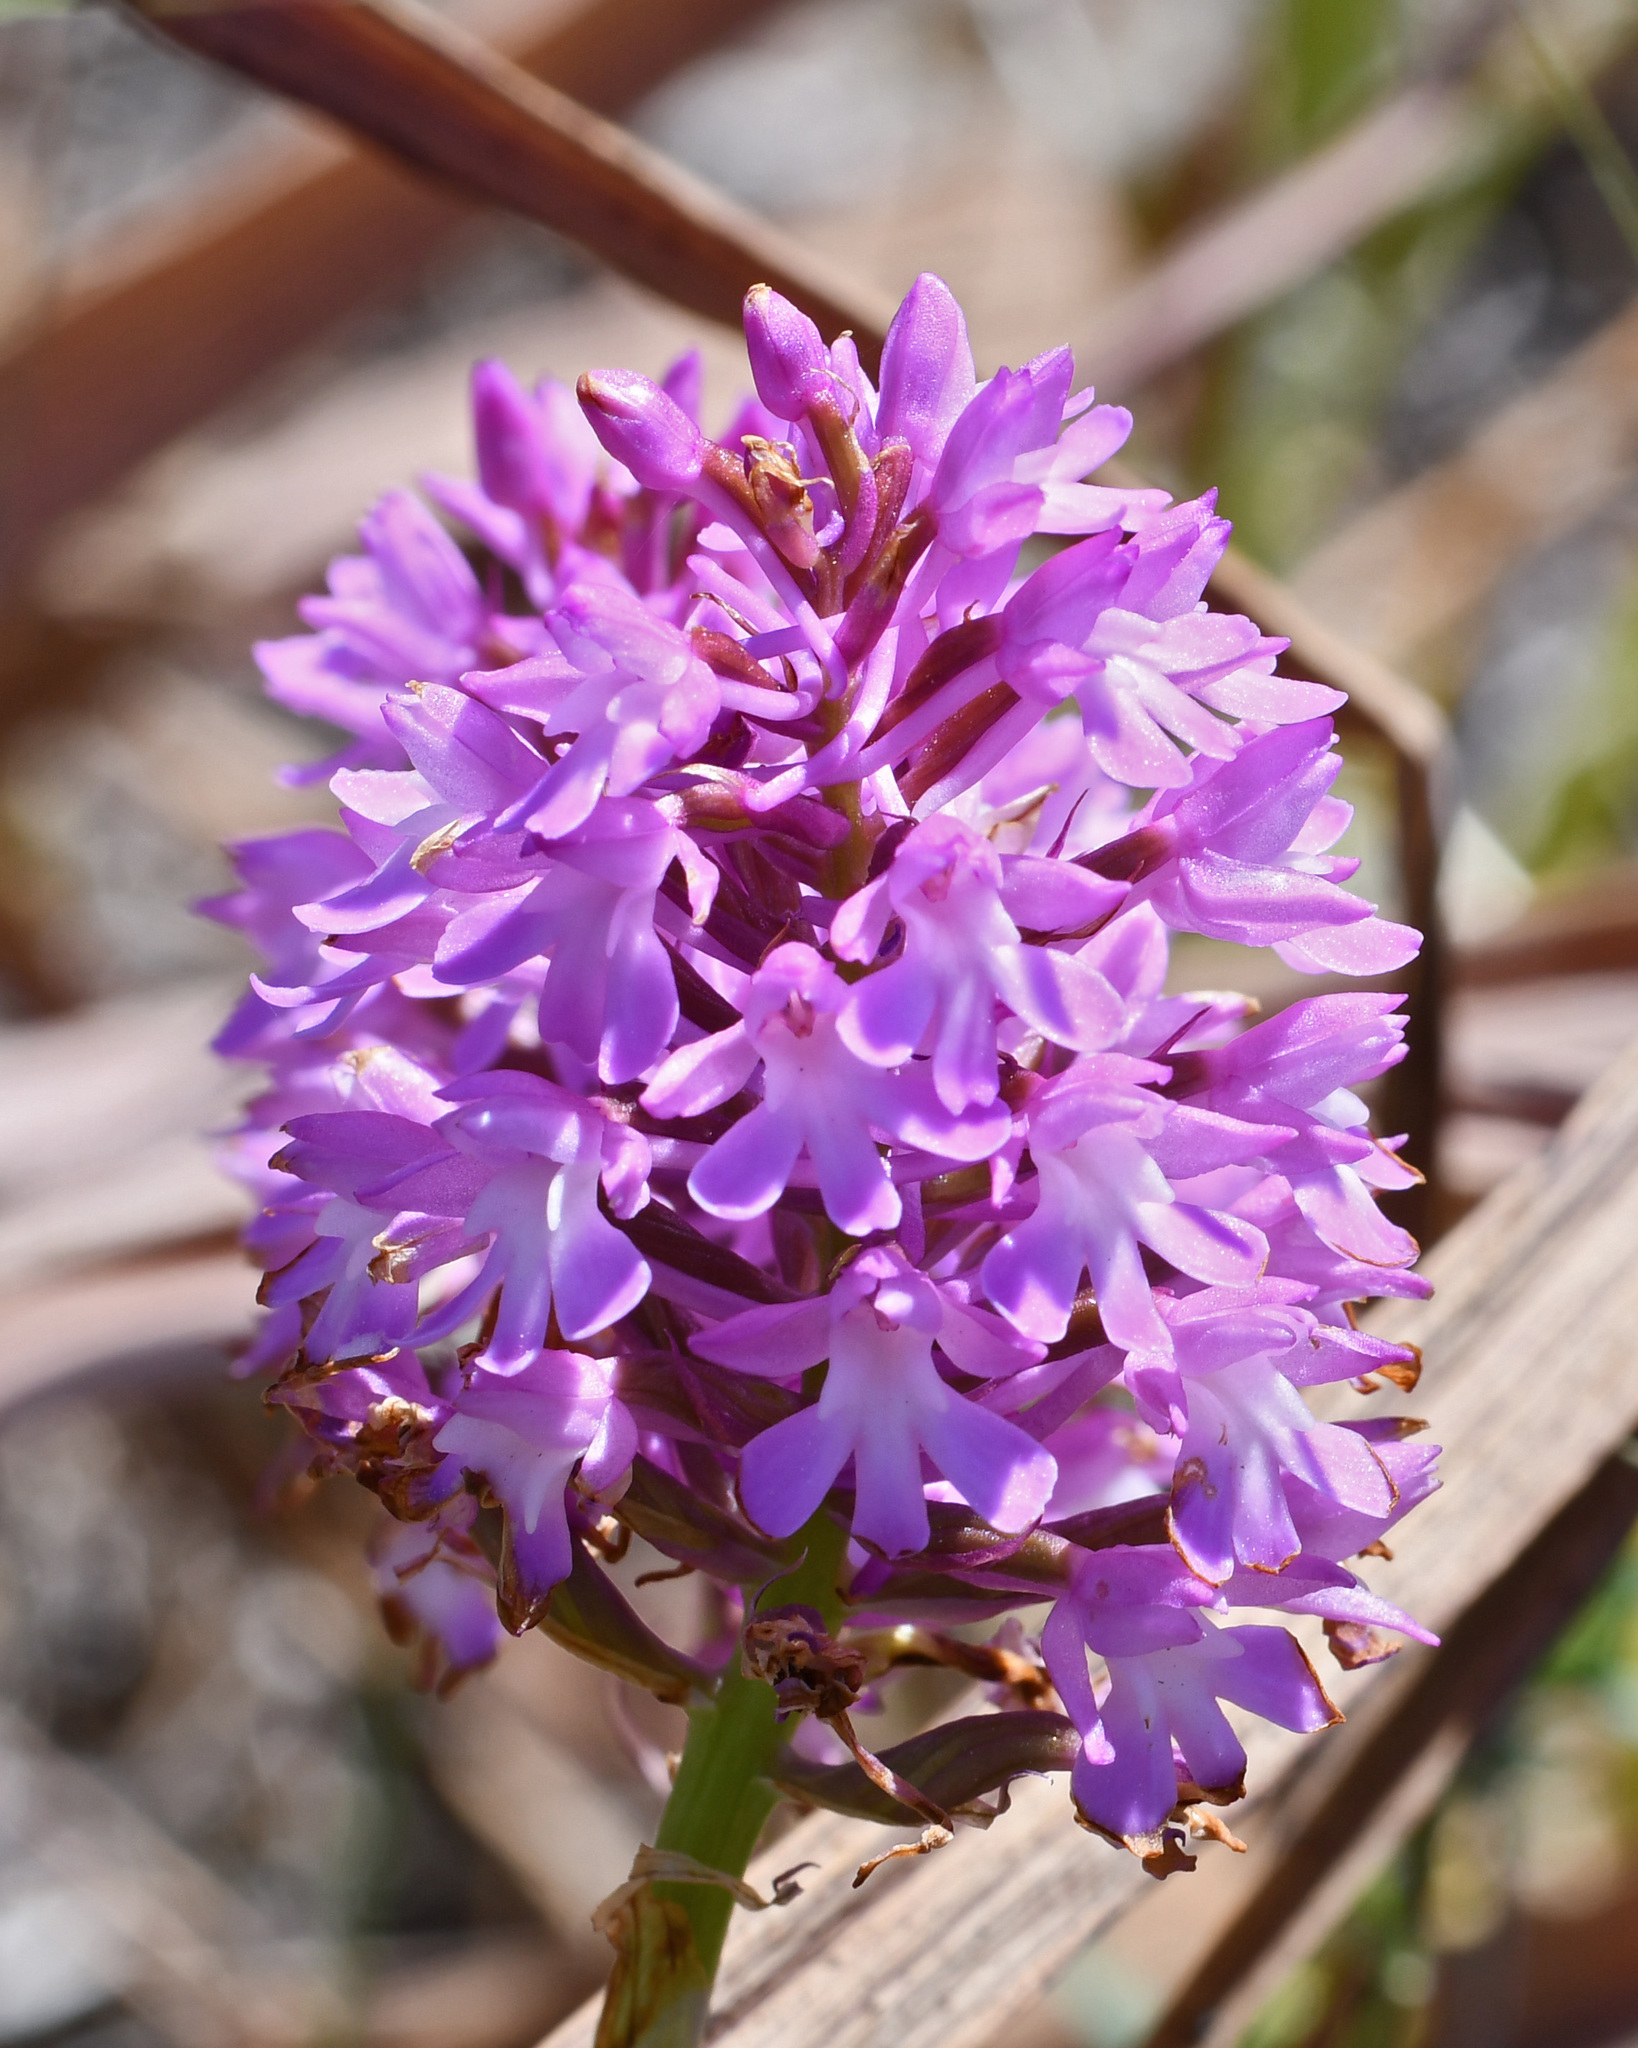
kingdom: Plantae
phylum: Tracheophyta
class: Liliopsida
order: Asparagales
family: Orchidaceae
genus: Anacamptis
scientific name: Anacamptis pyramidalis
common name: Pyramidal orchid
